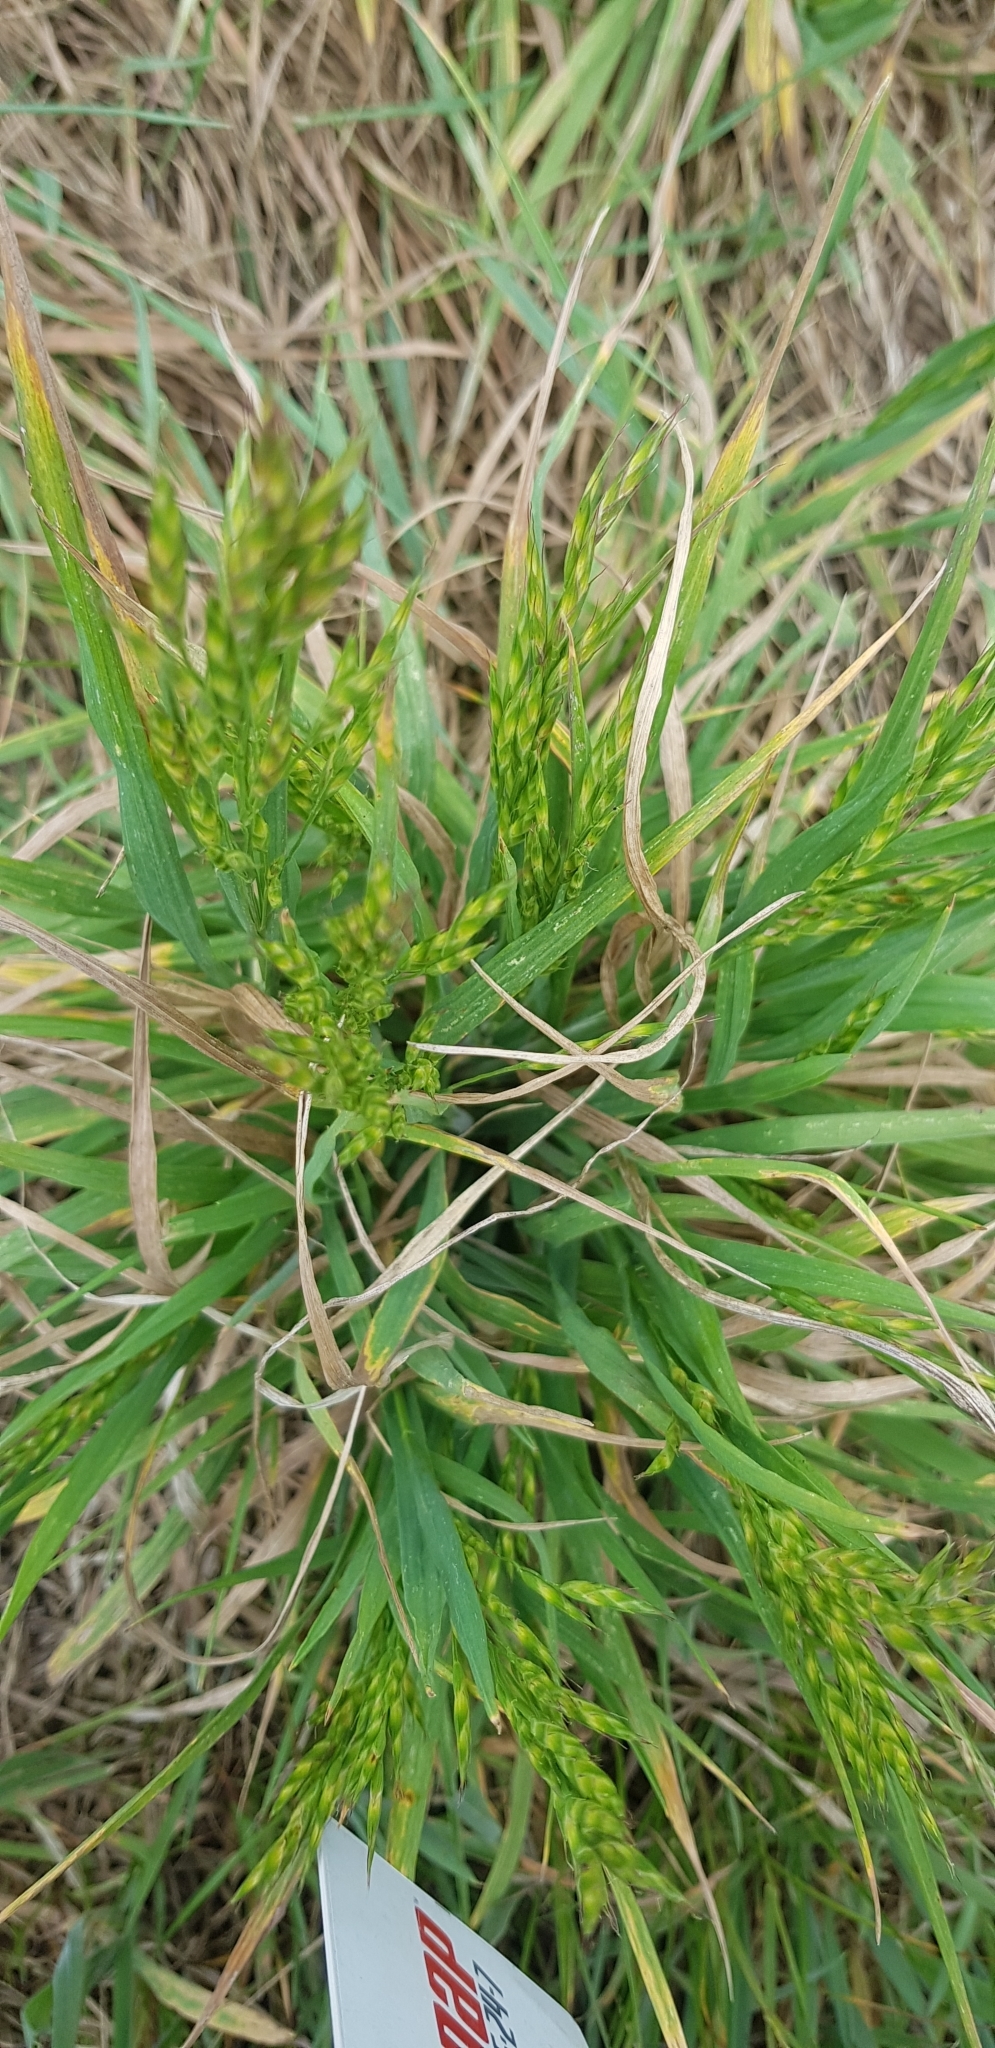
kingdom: Plantae
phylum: Tracheophyta
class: Liliopsida
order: Poales
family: Poaceae
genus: Bromus
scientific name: Bromus hordeaceus
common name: Soft brome
